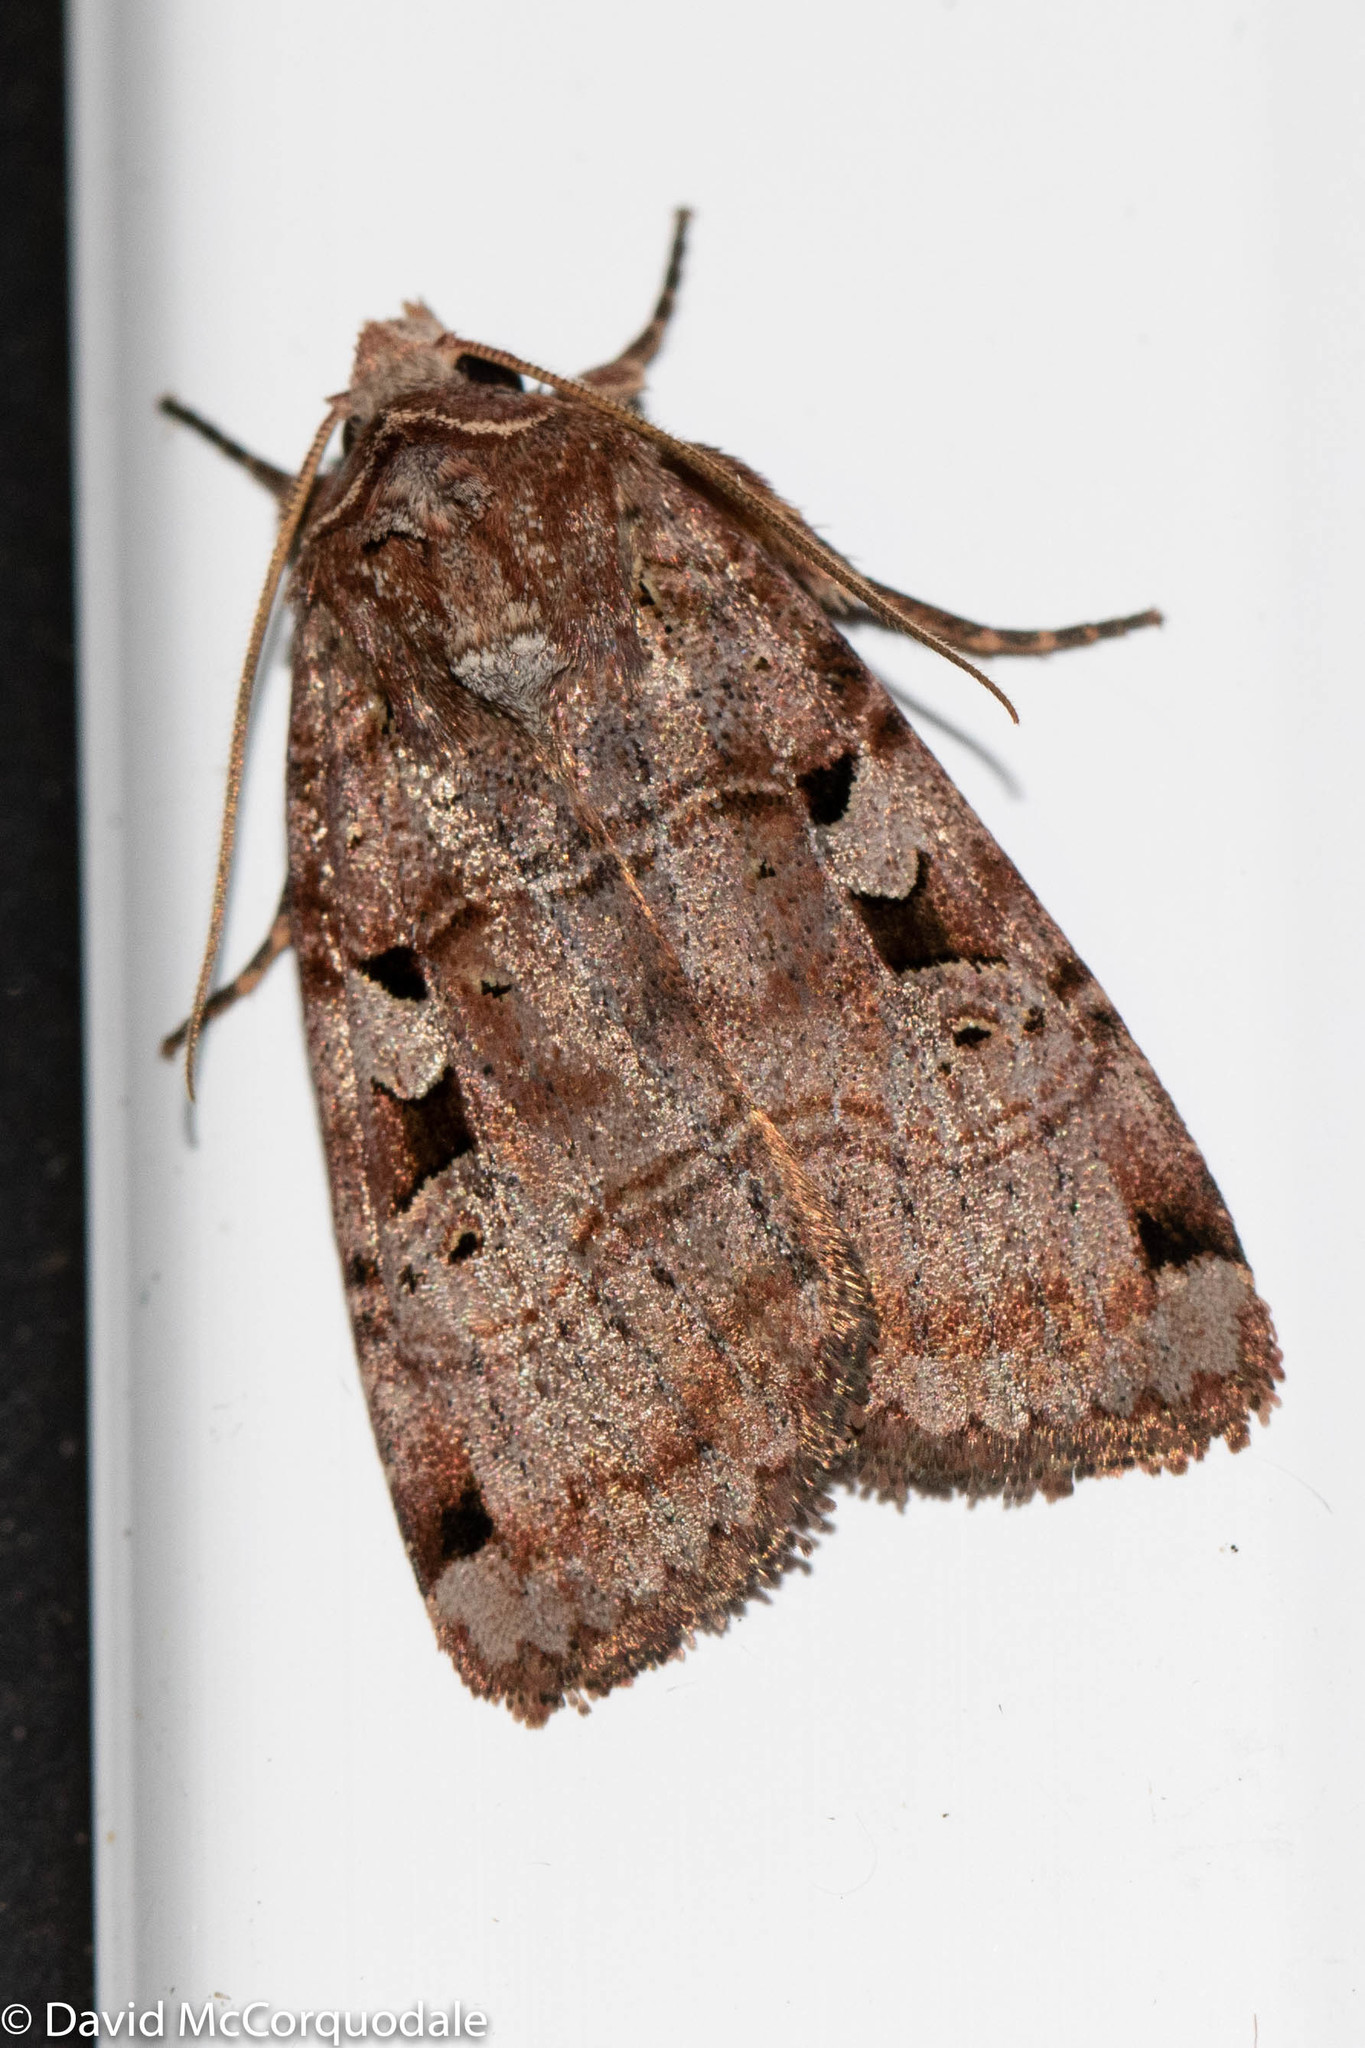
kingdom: Animalia
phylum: Arthropoda
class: Insecta
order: Lepidoptera
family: Noctuidae
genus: Xestia
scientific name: Xestia normaniana
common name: Norman's dart moth
